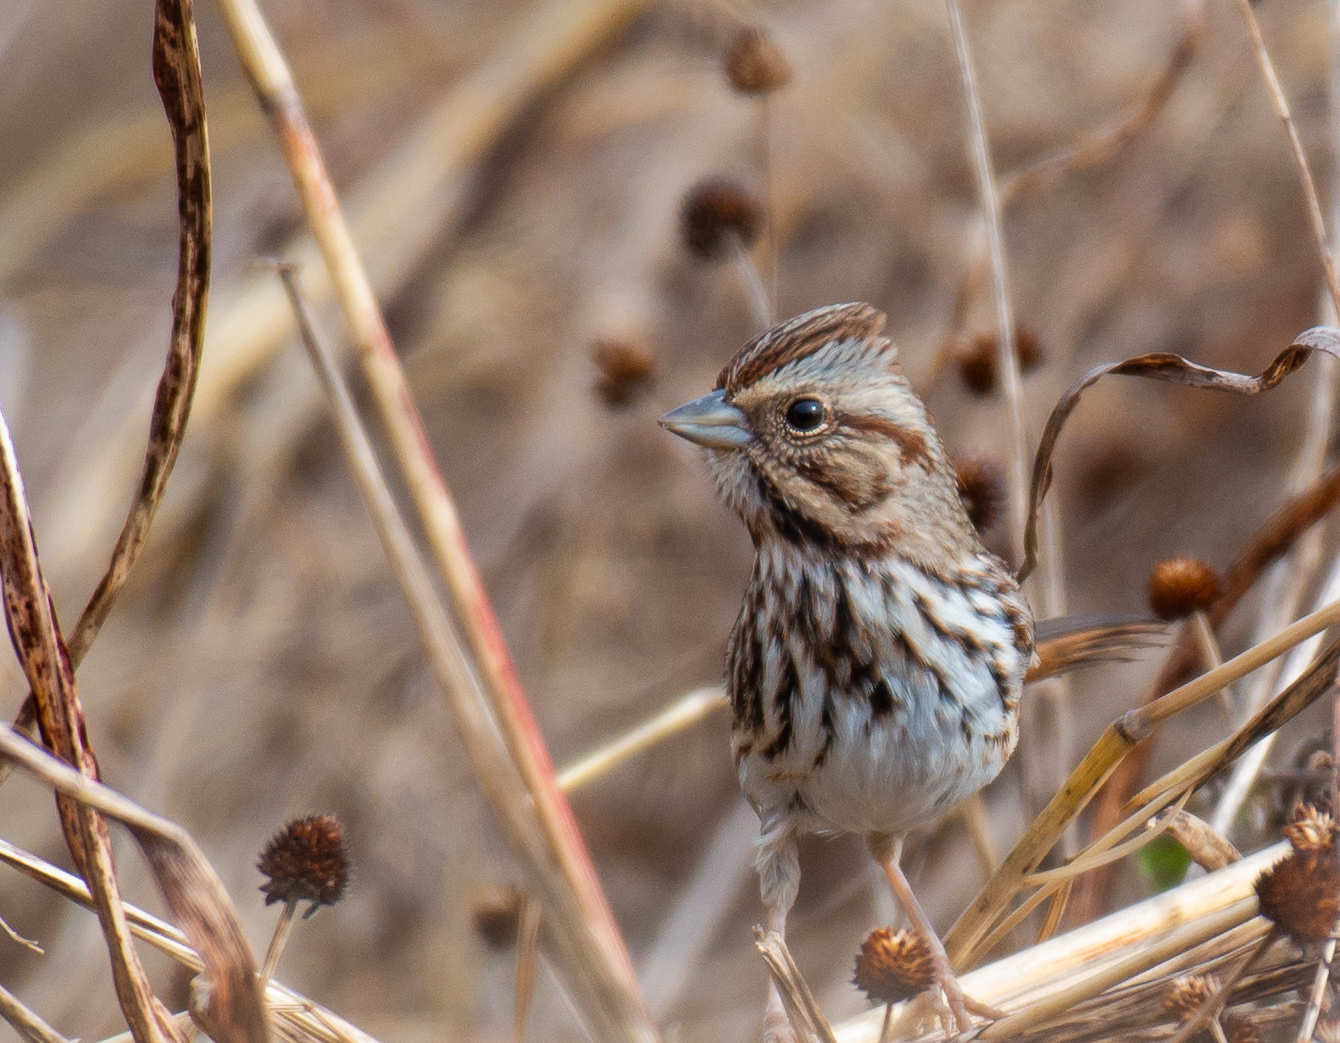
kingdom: Animalia
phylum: Chordata
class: Aves
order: Passeriformes
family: Passerellidae
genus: Melospiza
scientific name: Melospiza melodia
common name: Song sparrow
